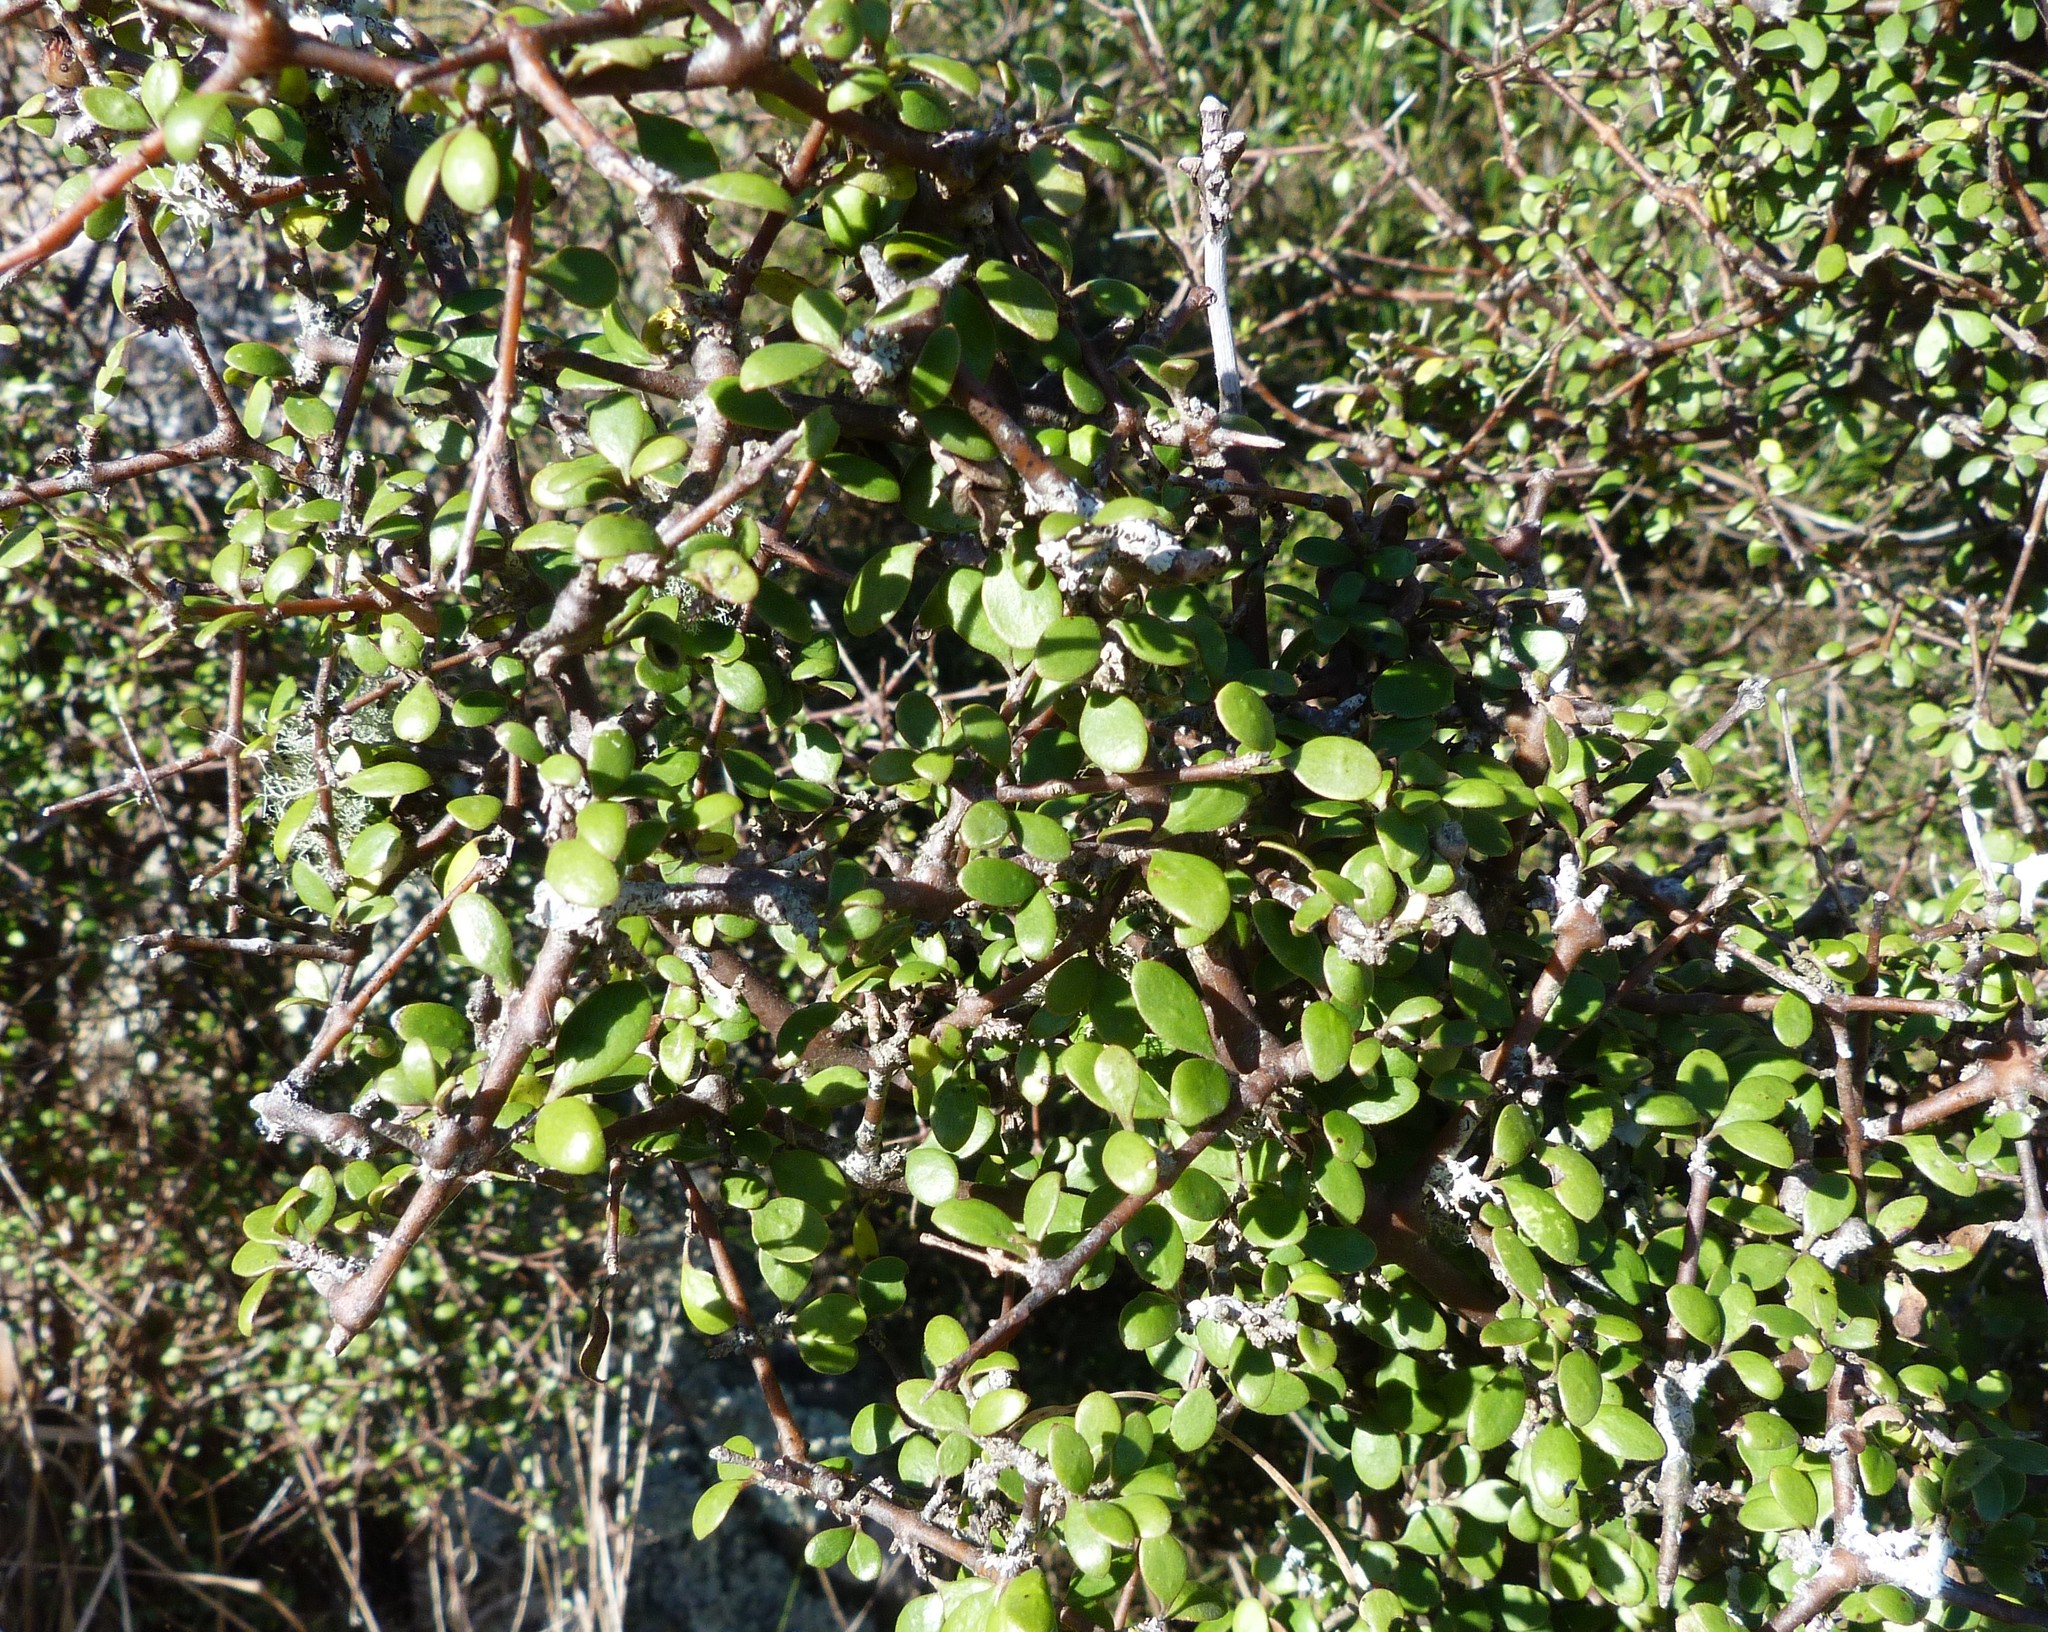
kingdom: Plantae
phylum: Tracheophyta
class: Magnoliopsida
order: Gentianales
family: Rubiaceae
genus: Coprosma
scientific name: Coprosma crassifolia
